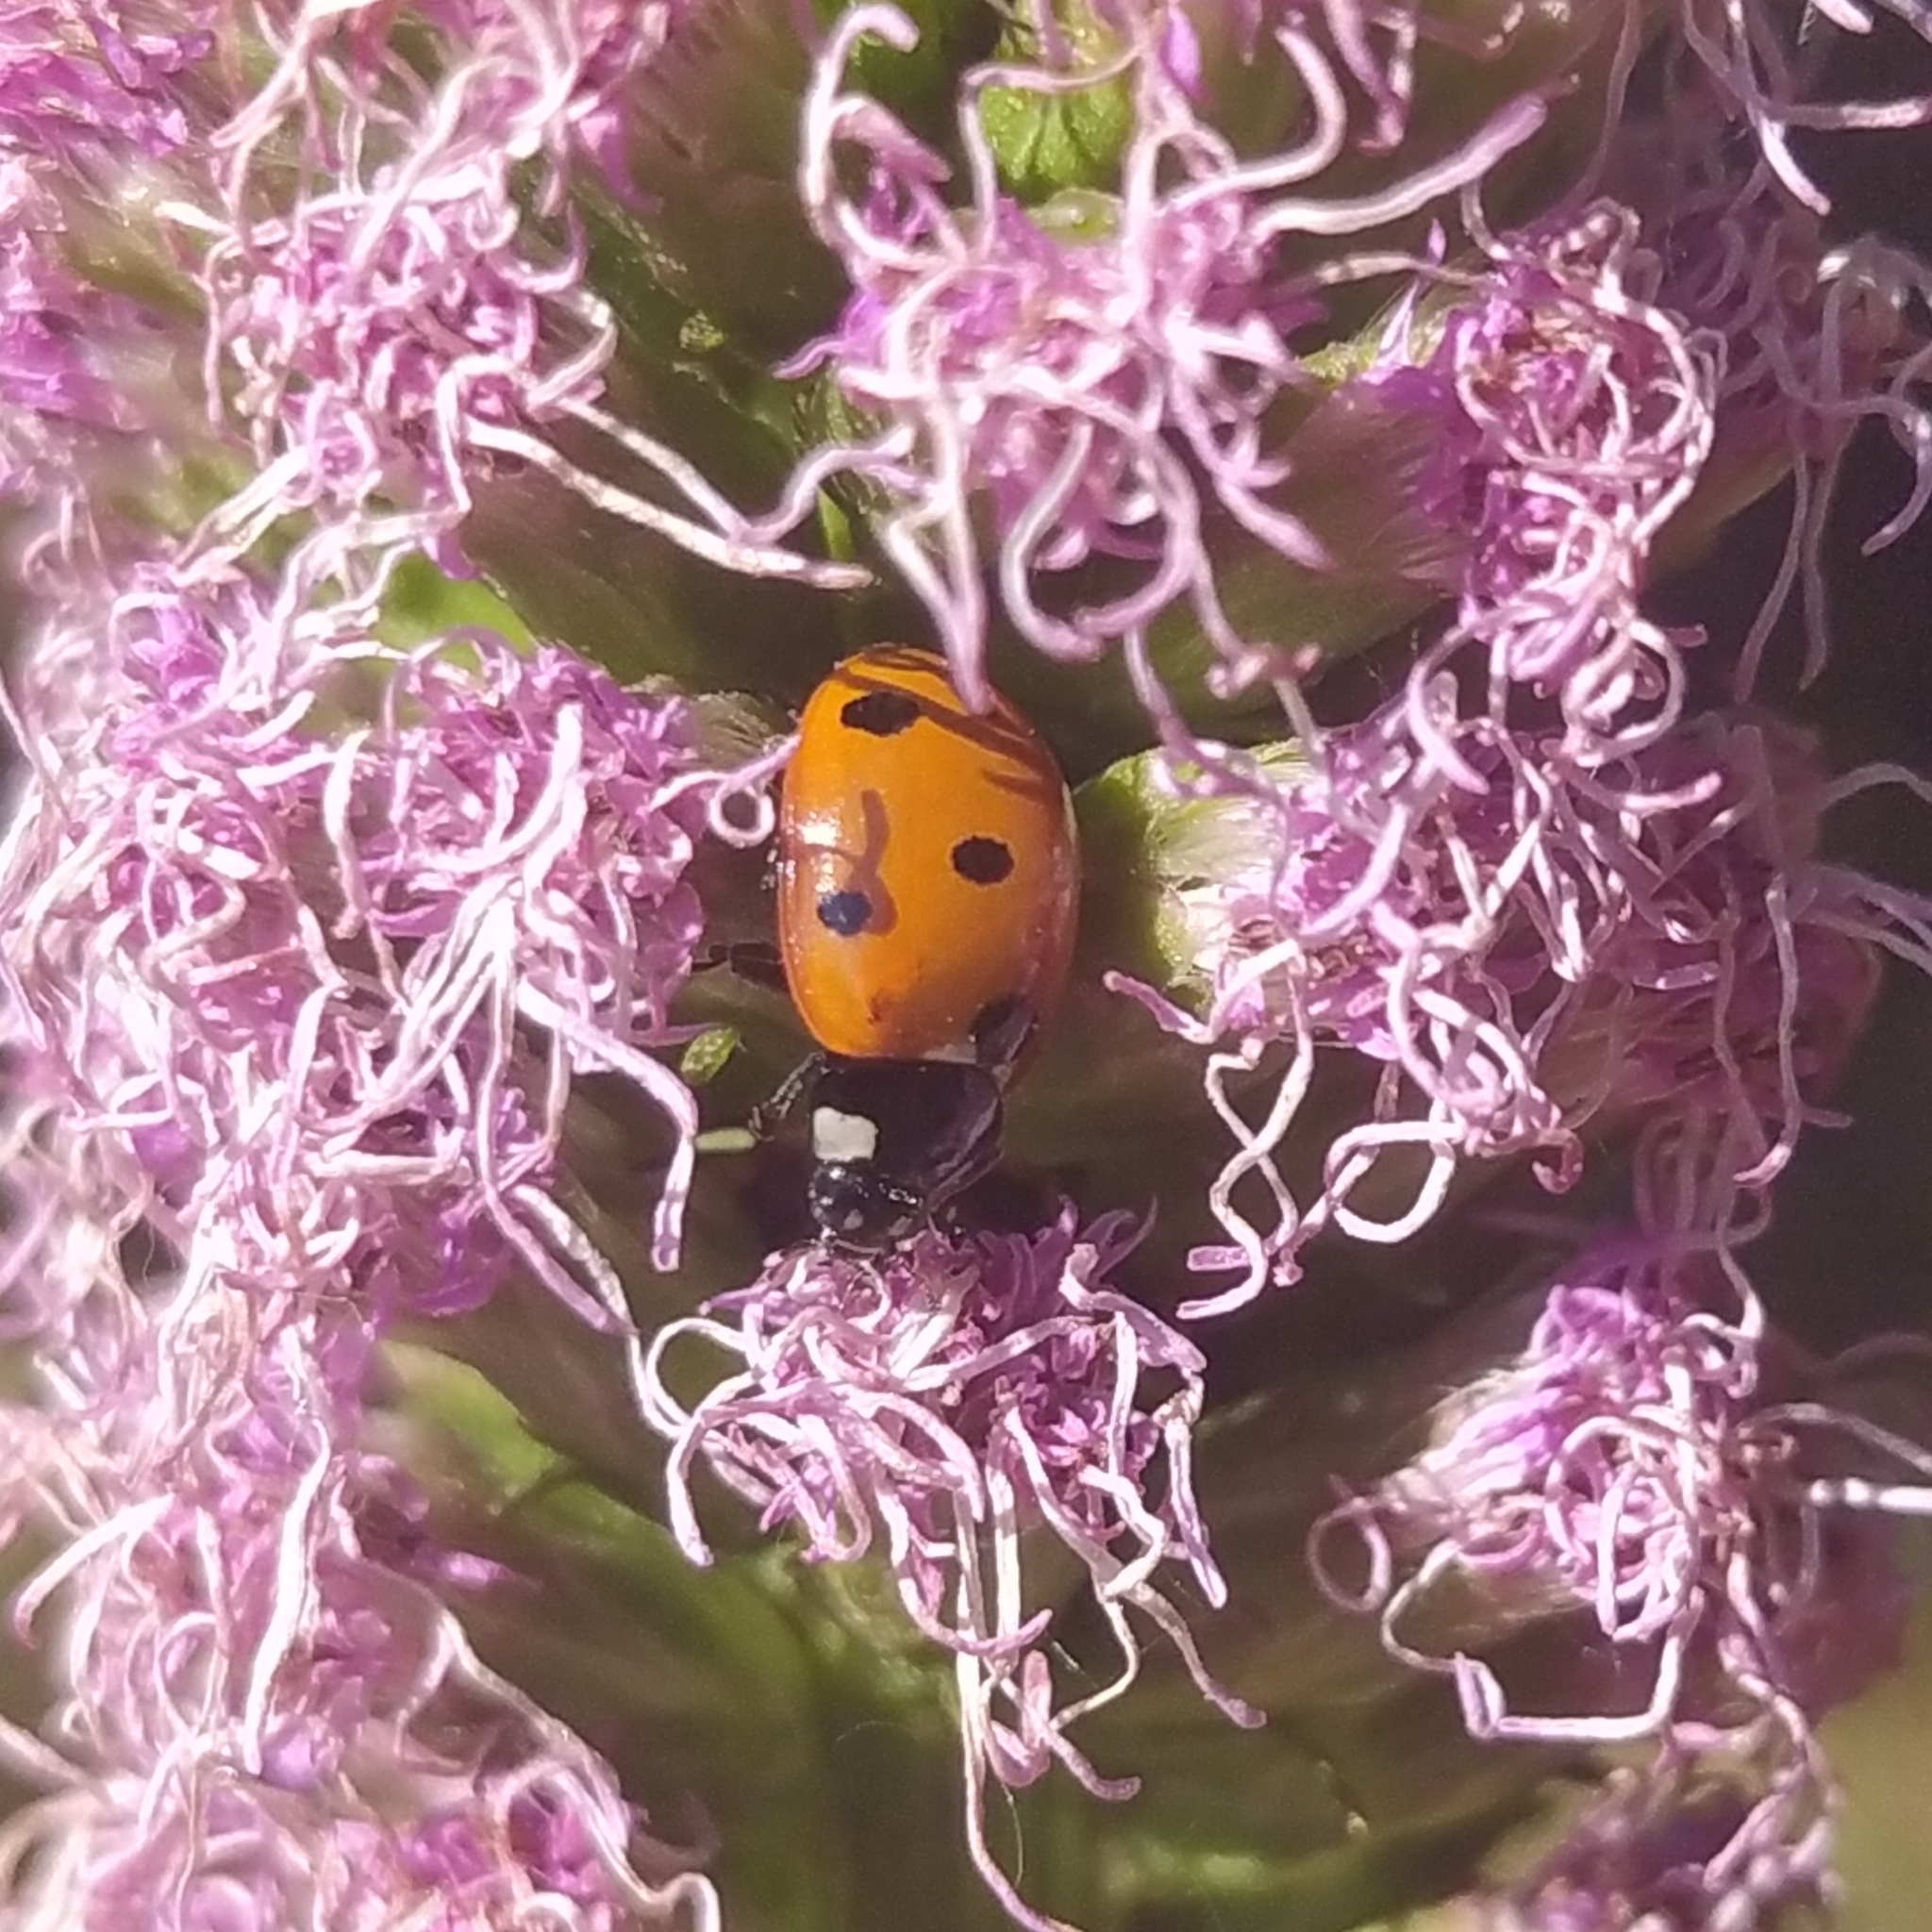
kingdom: Animalia
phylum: Arthropoda
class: Insecta
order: Coleoptera
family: Coccinellidae
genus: Coccinella
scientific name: Coccinella septempunctata
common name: Sevenspotted lady beetle
